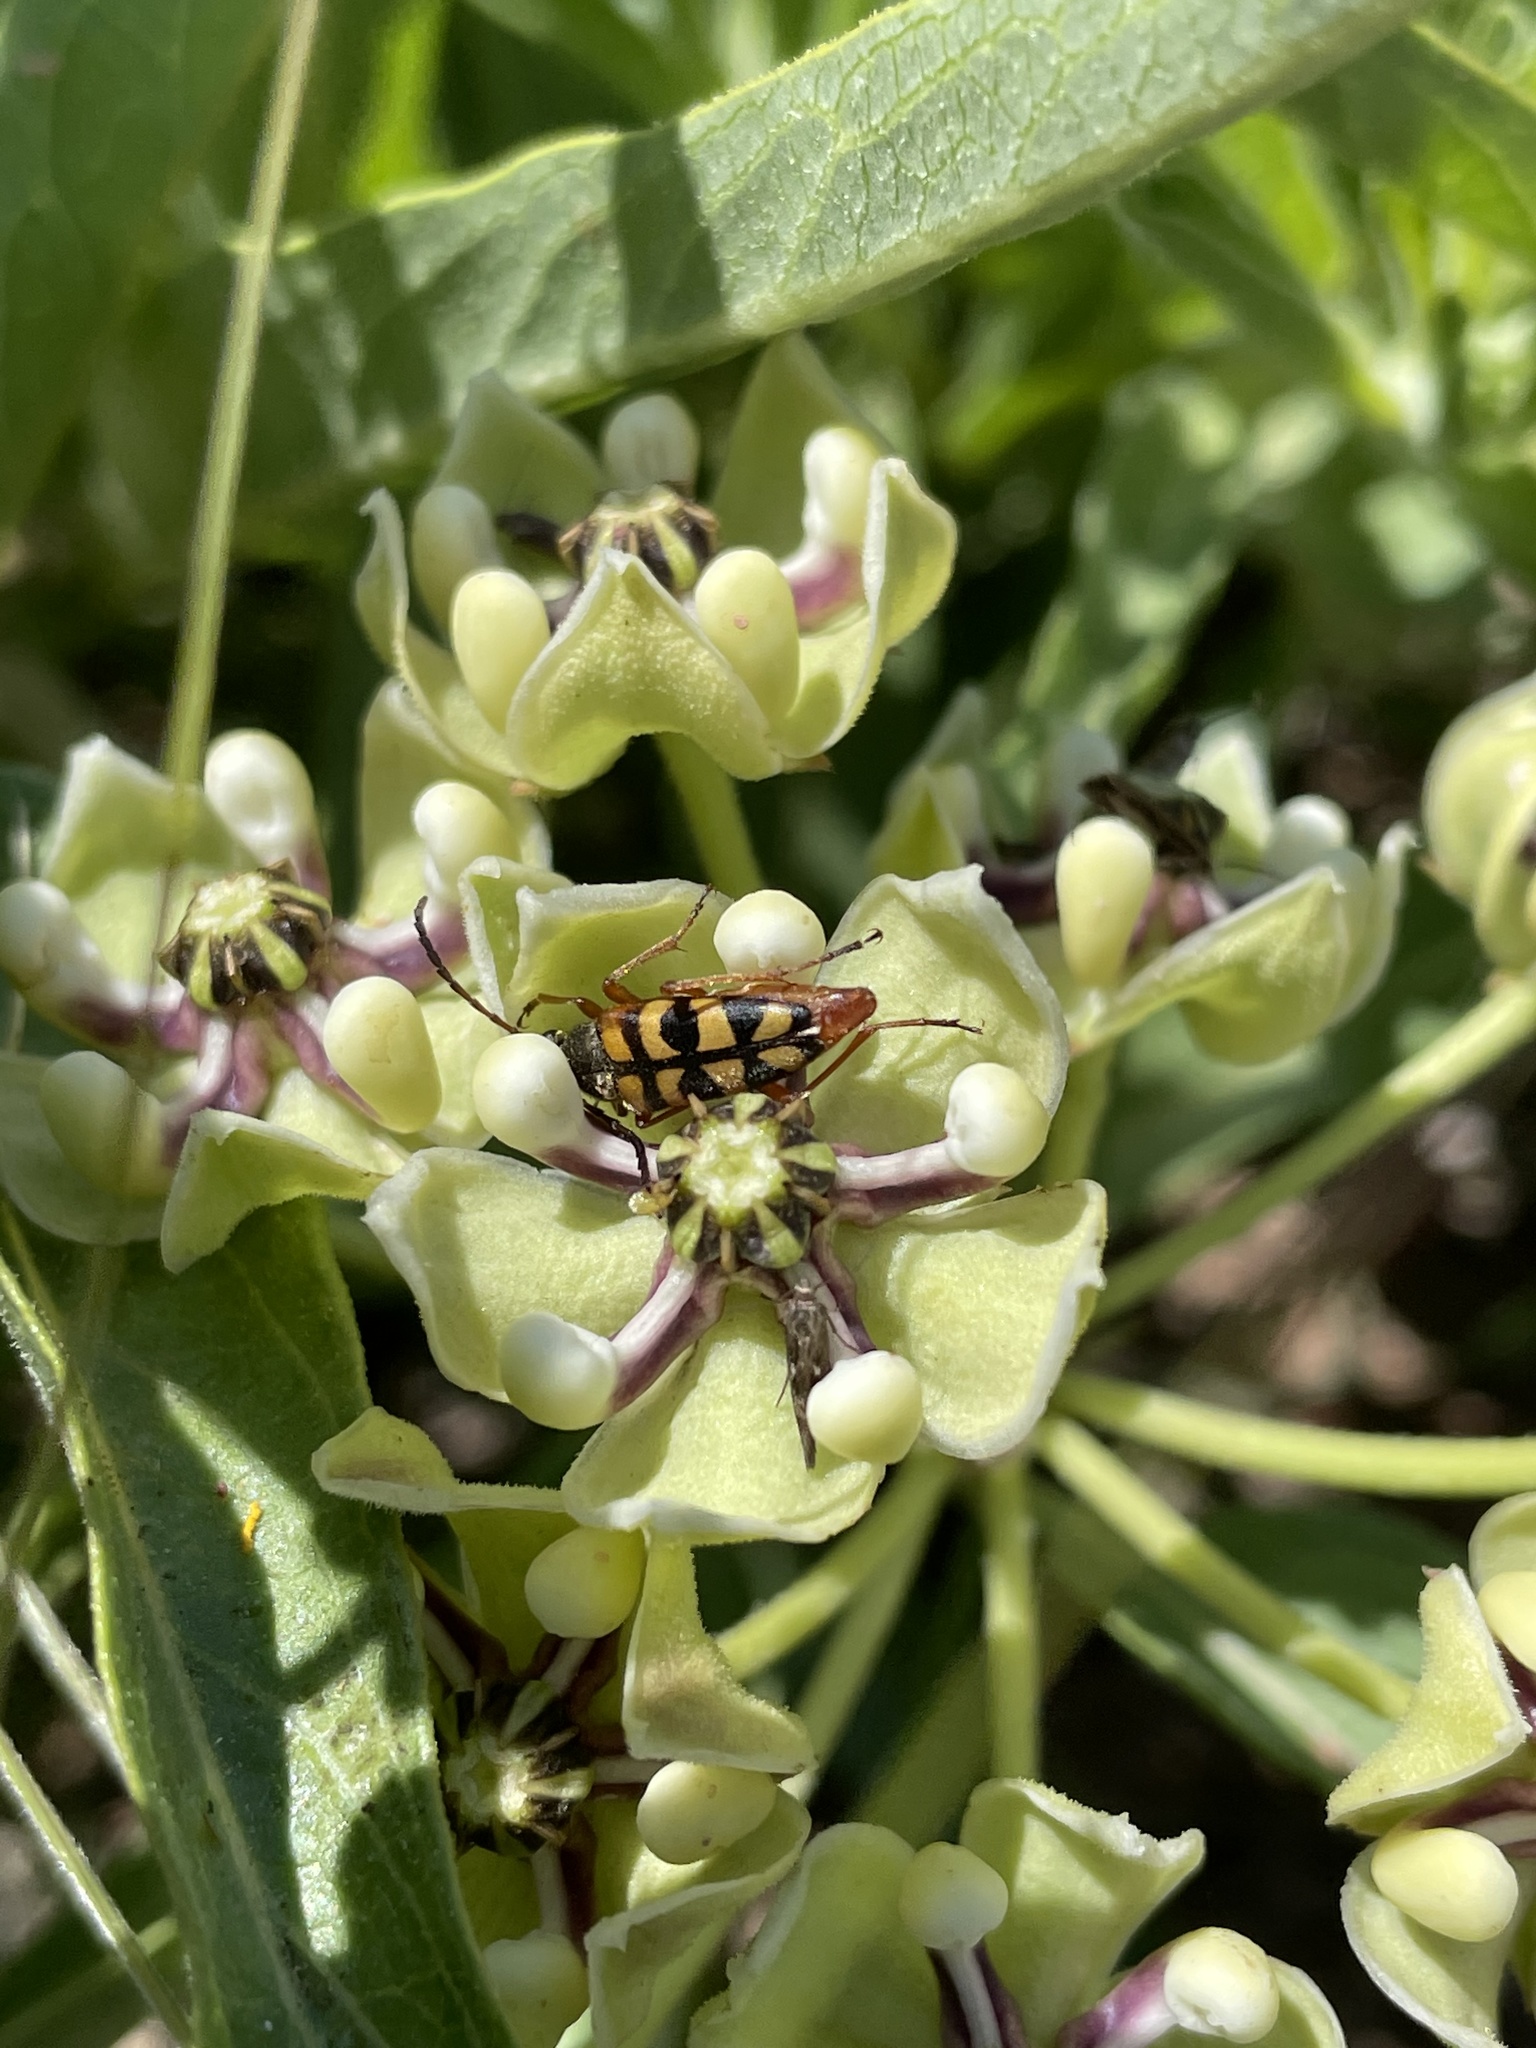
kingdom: Animalia
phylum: Arthropoda
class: Insecta
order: Coleoptera
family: Cerambycidae
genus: Typocerus
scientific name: Typocerus sinuatus
